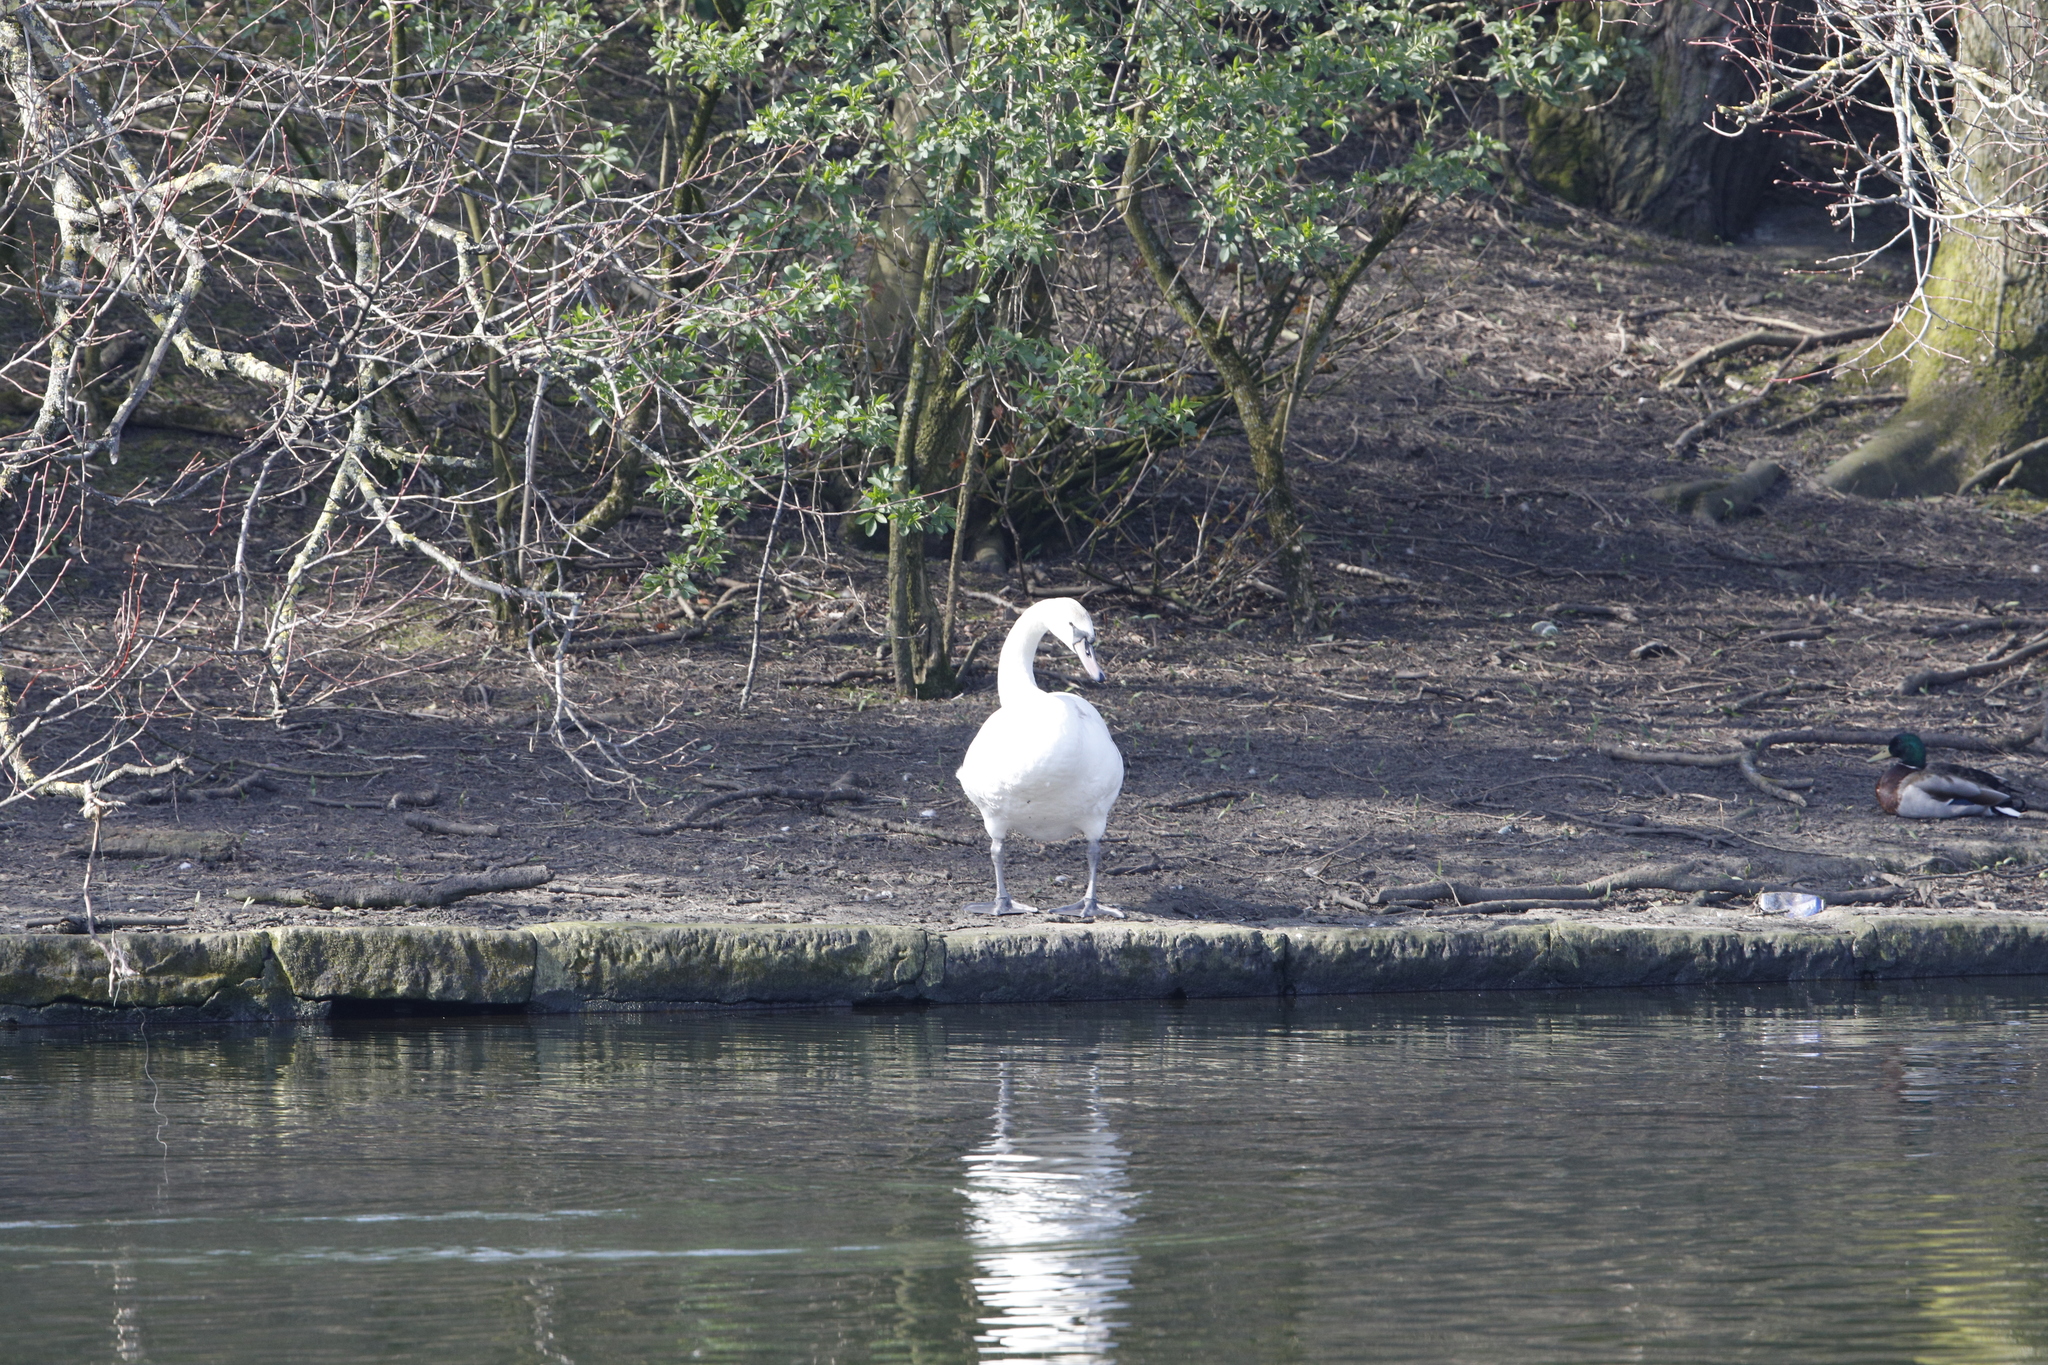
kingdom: Animalia
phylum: Chordata
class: Aves
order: Anseriformes
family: Anatidae
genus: Cygnus
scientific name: Cygnus olor
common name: Mute swan
